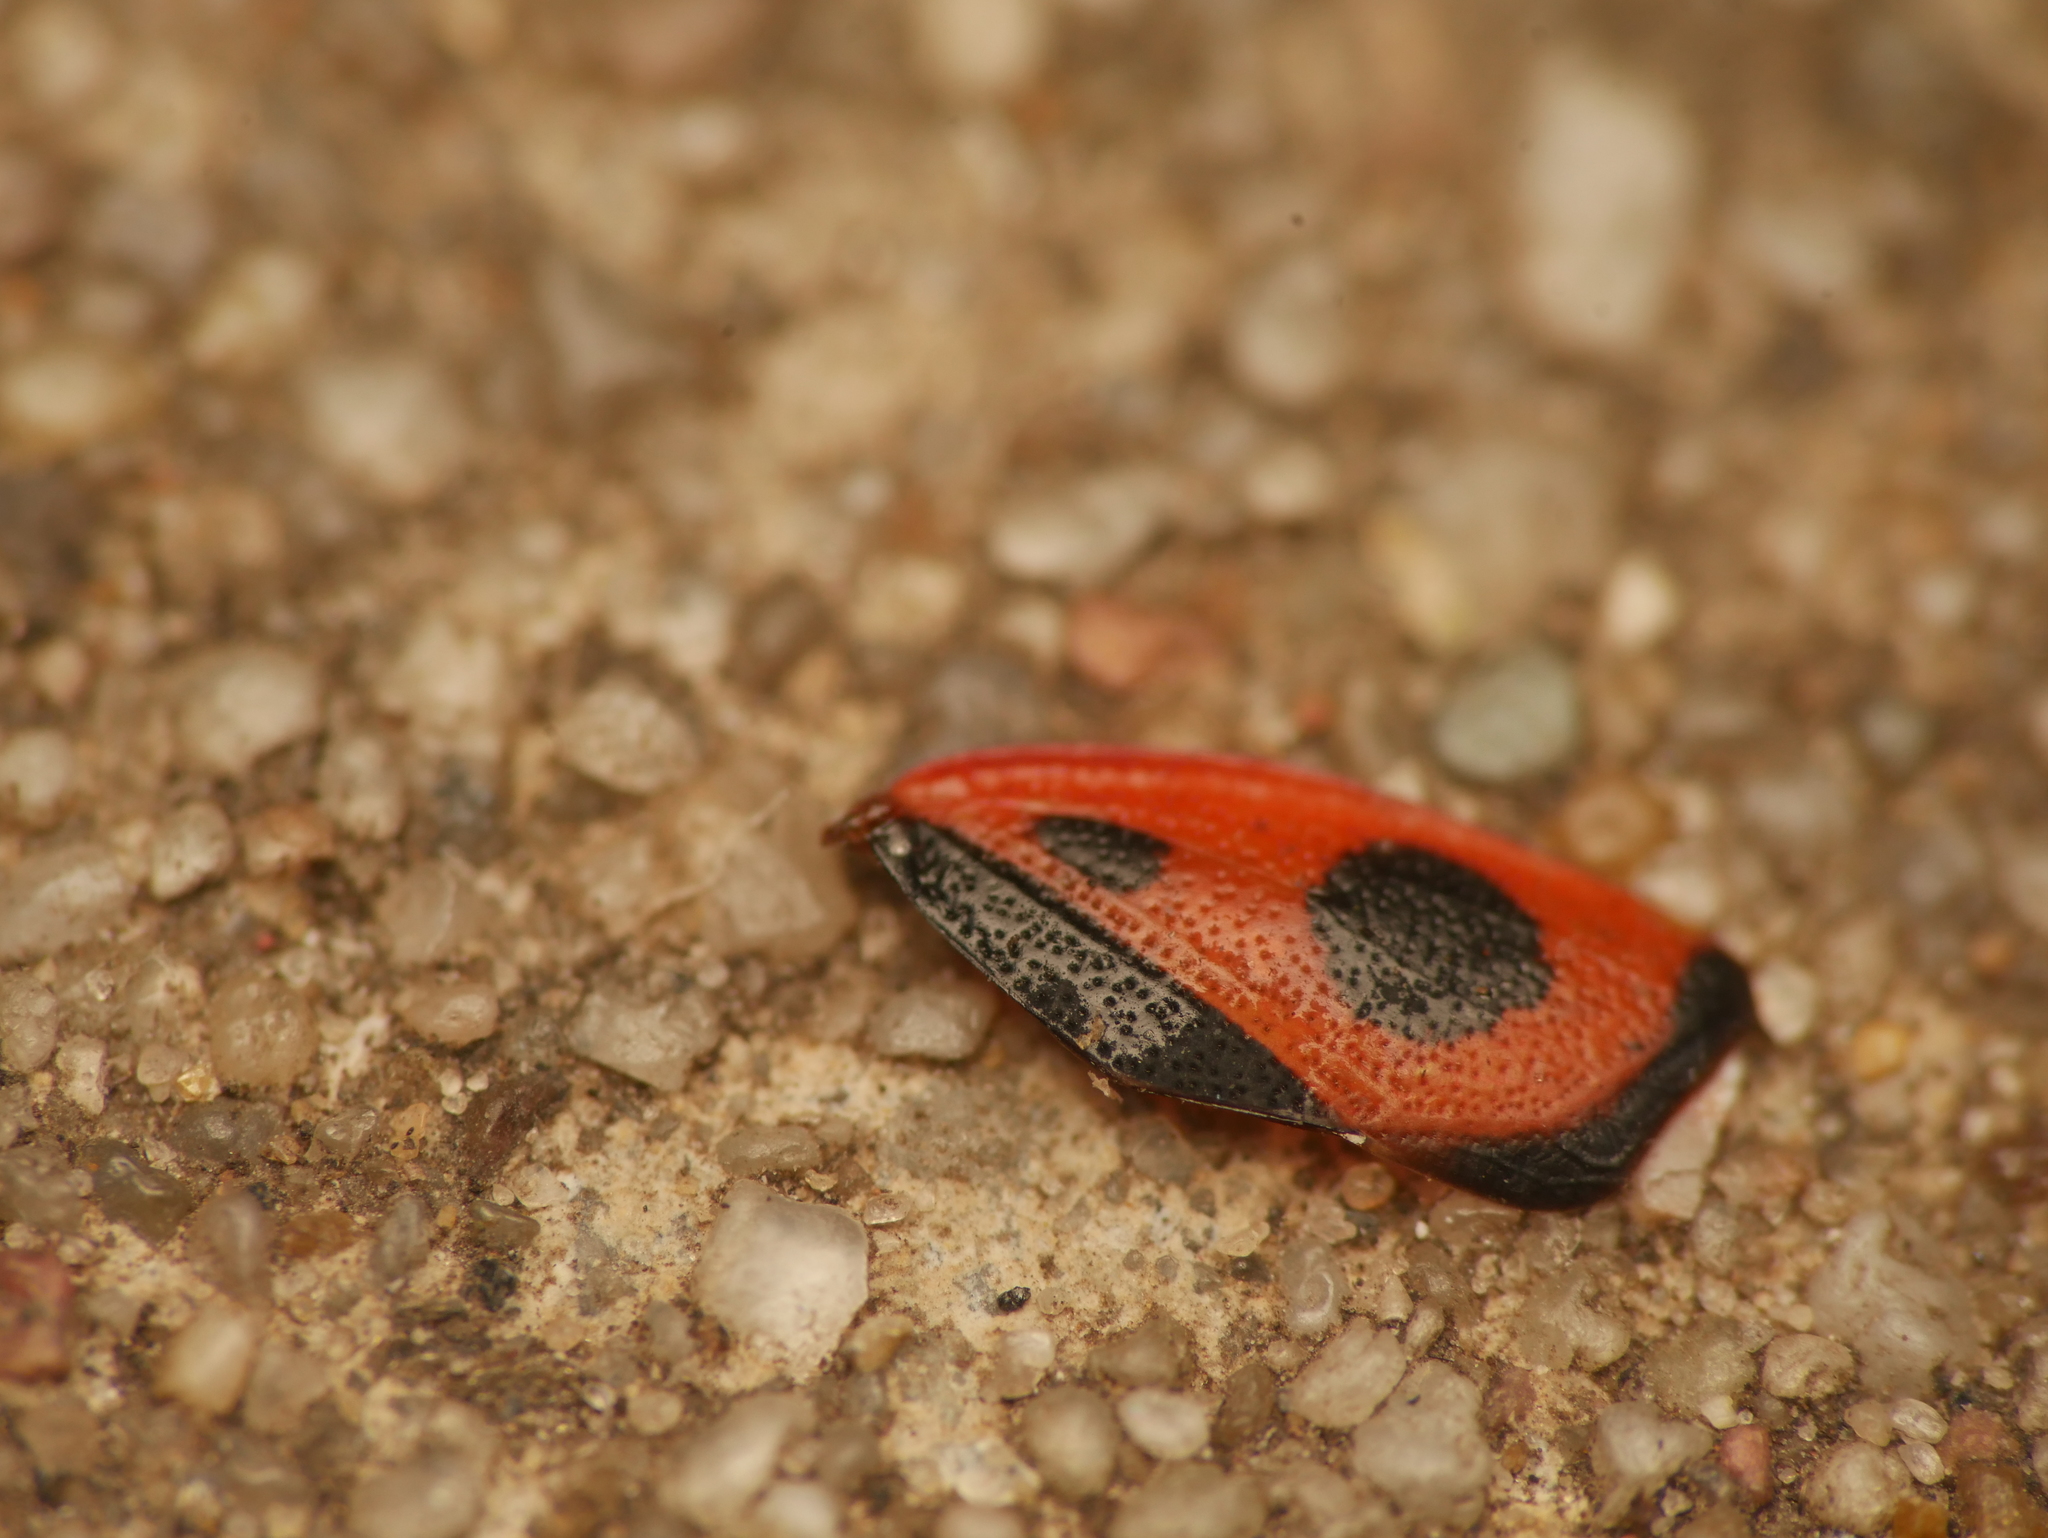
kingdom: Animalia
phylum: Arthropoda
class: Insecta
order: Hemiptera
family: Pyrrhocoridae
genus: Pyrrhocoris
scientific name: Pyrrhocoris apterus
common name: Firebug
